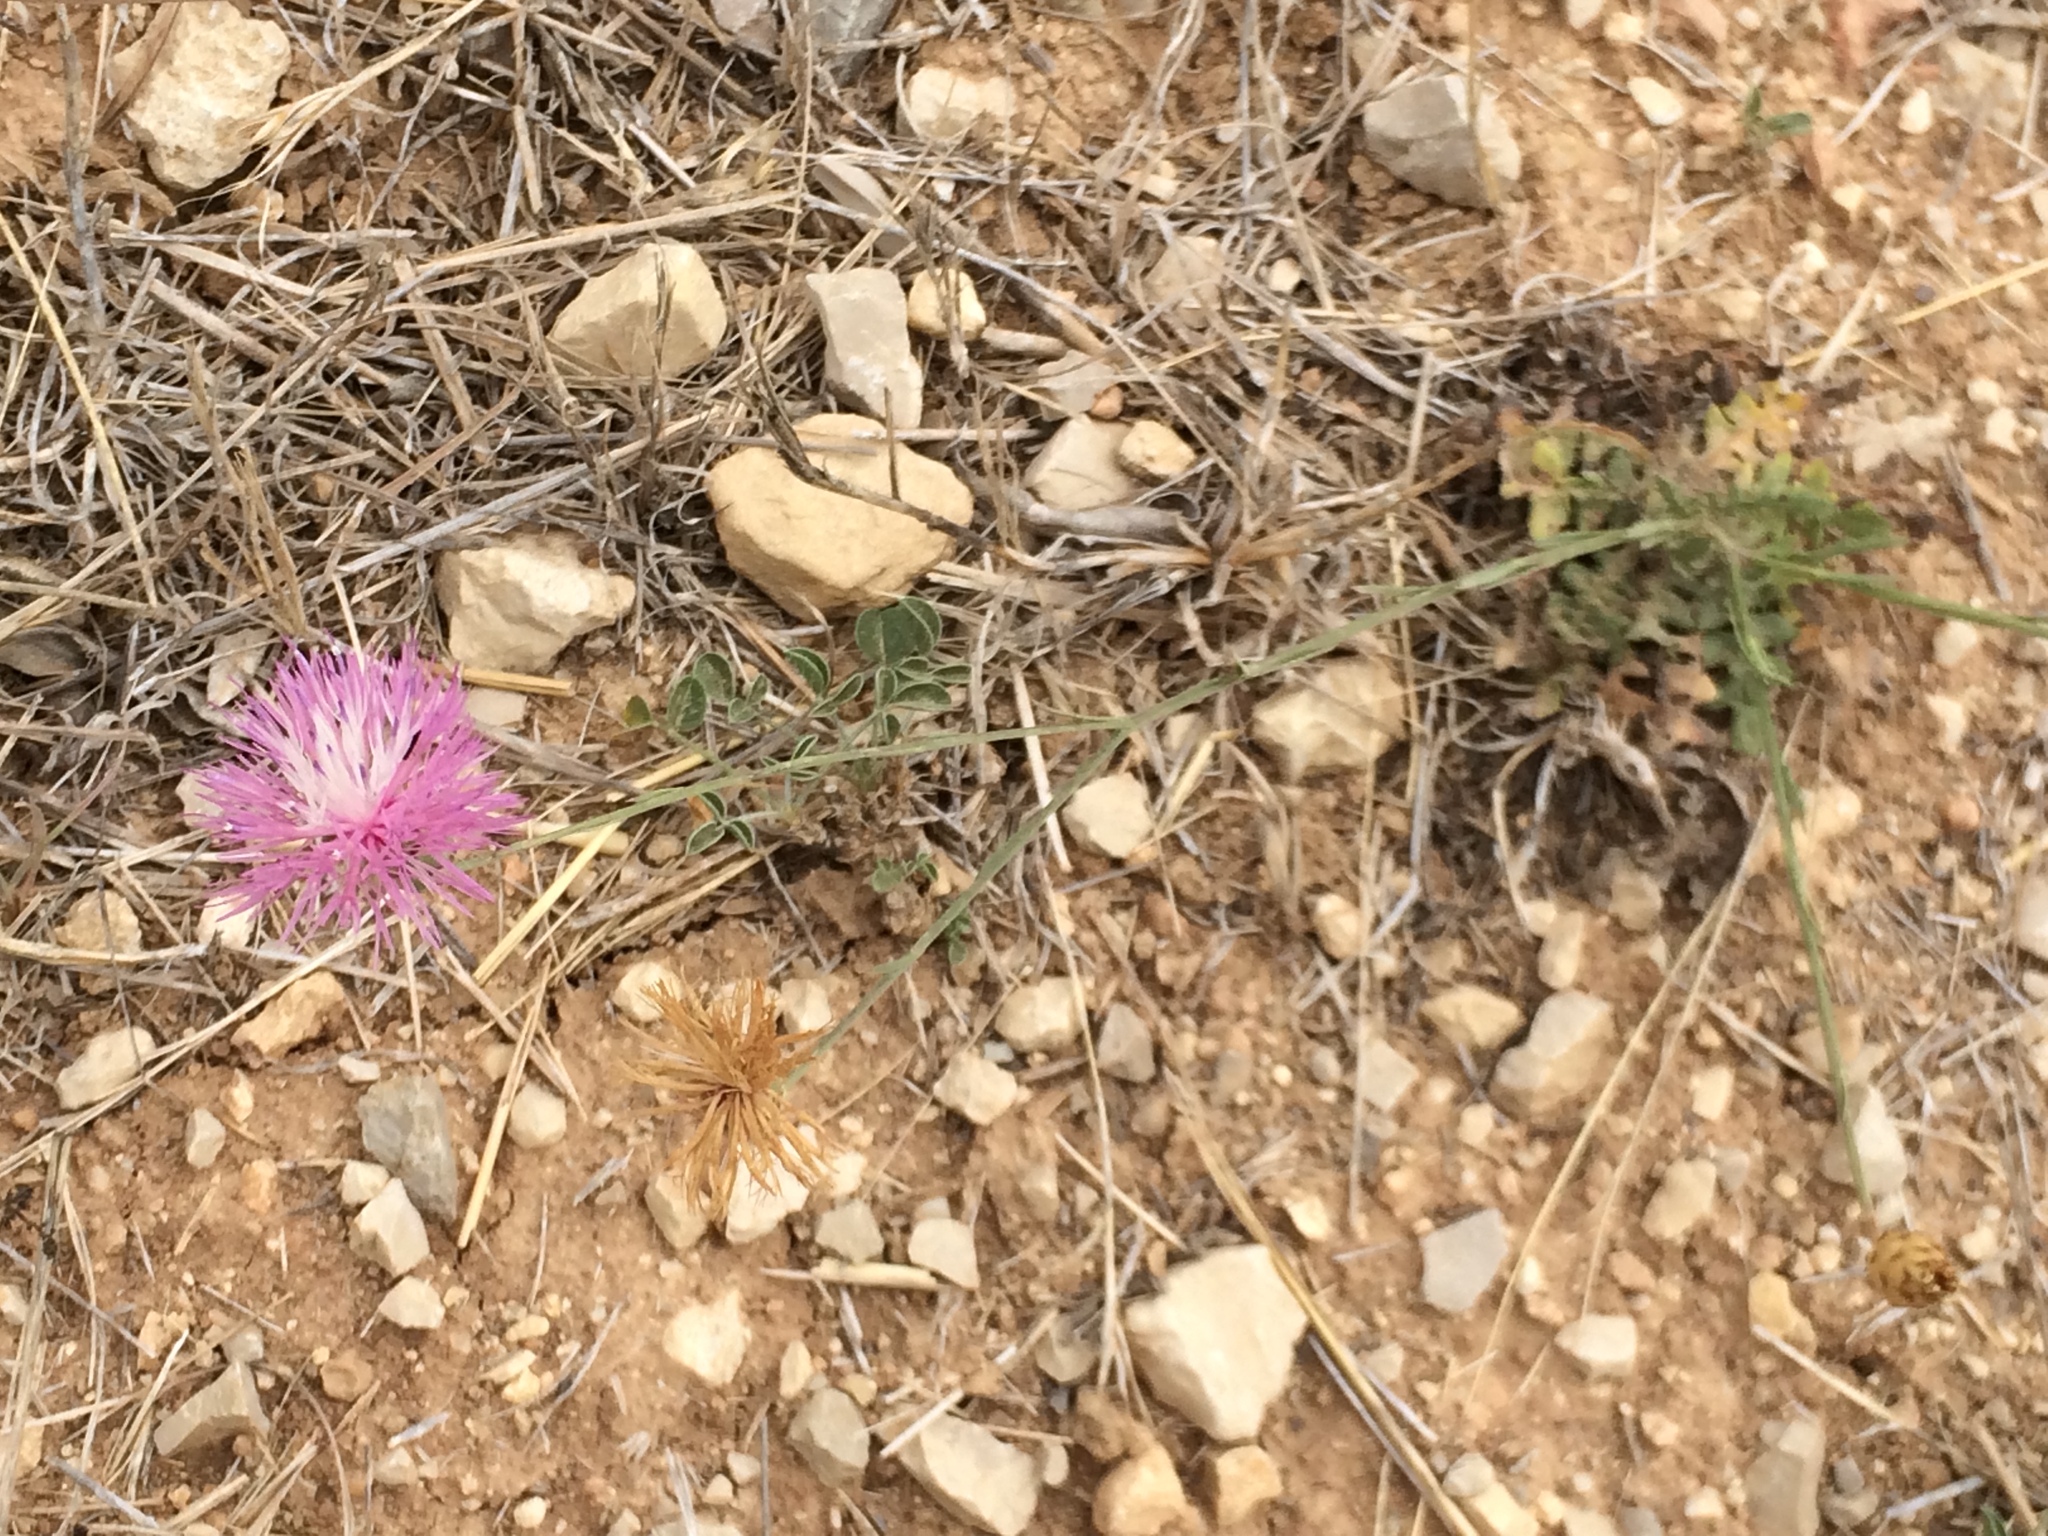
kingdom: Plantae
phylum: Tracheophyta
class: Magnoliopsida
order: Asterales
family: Asteraceae
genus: Mantisalca
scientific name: Mantisalca salmantica
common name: Dagger flower
